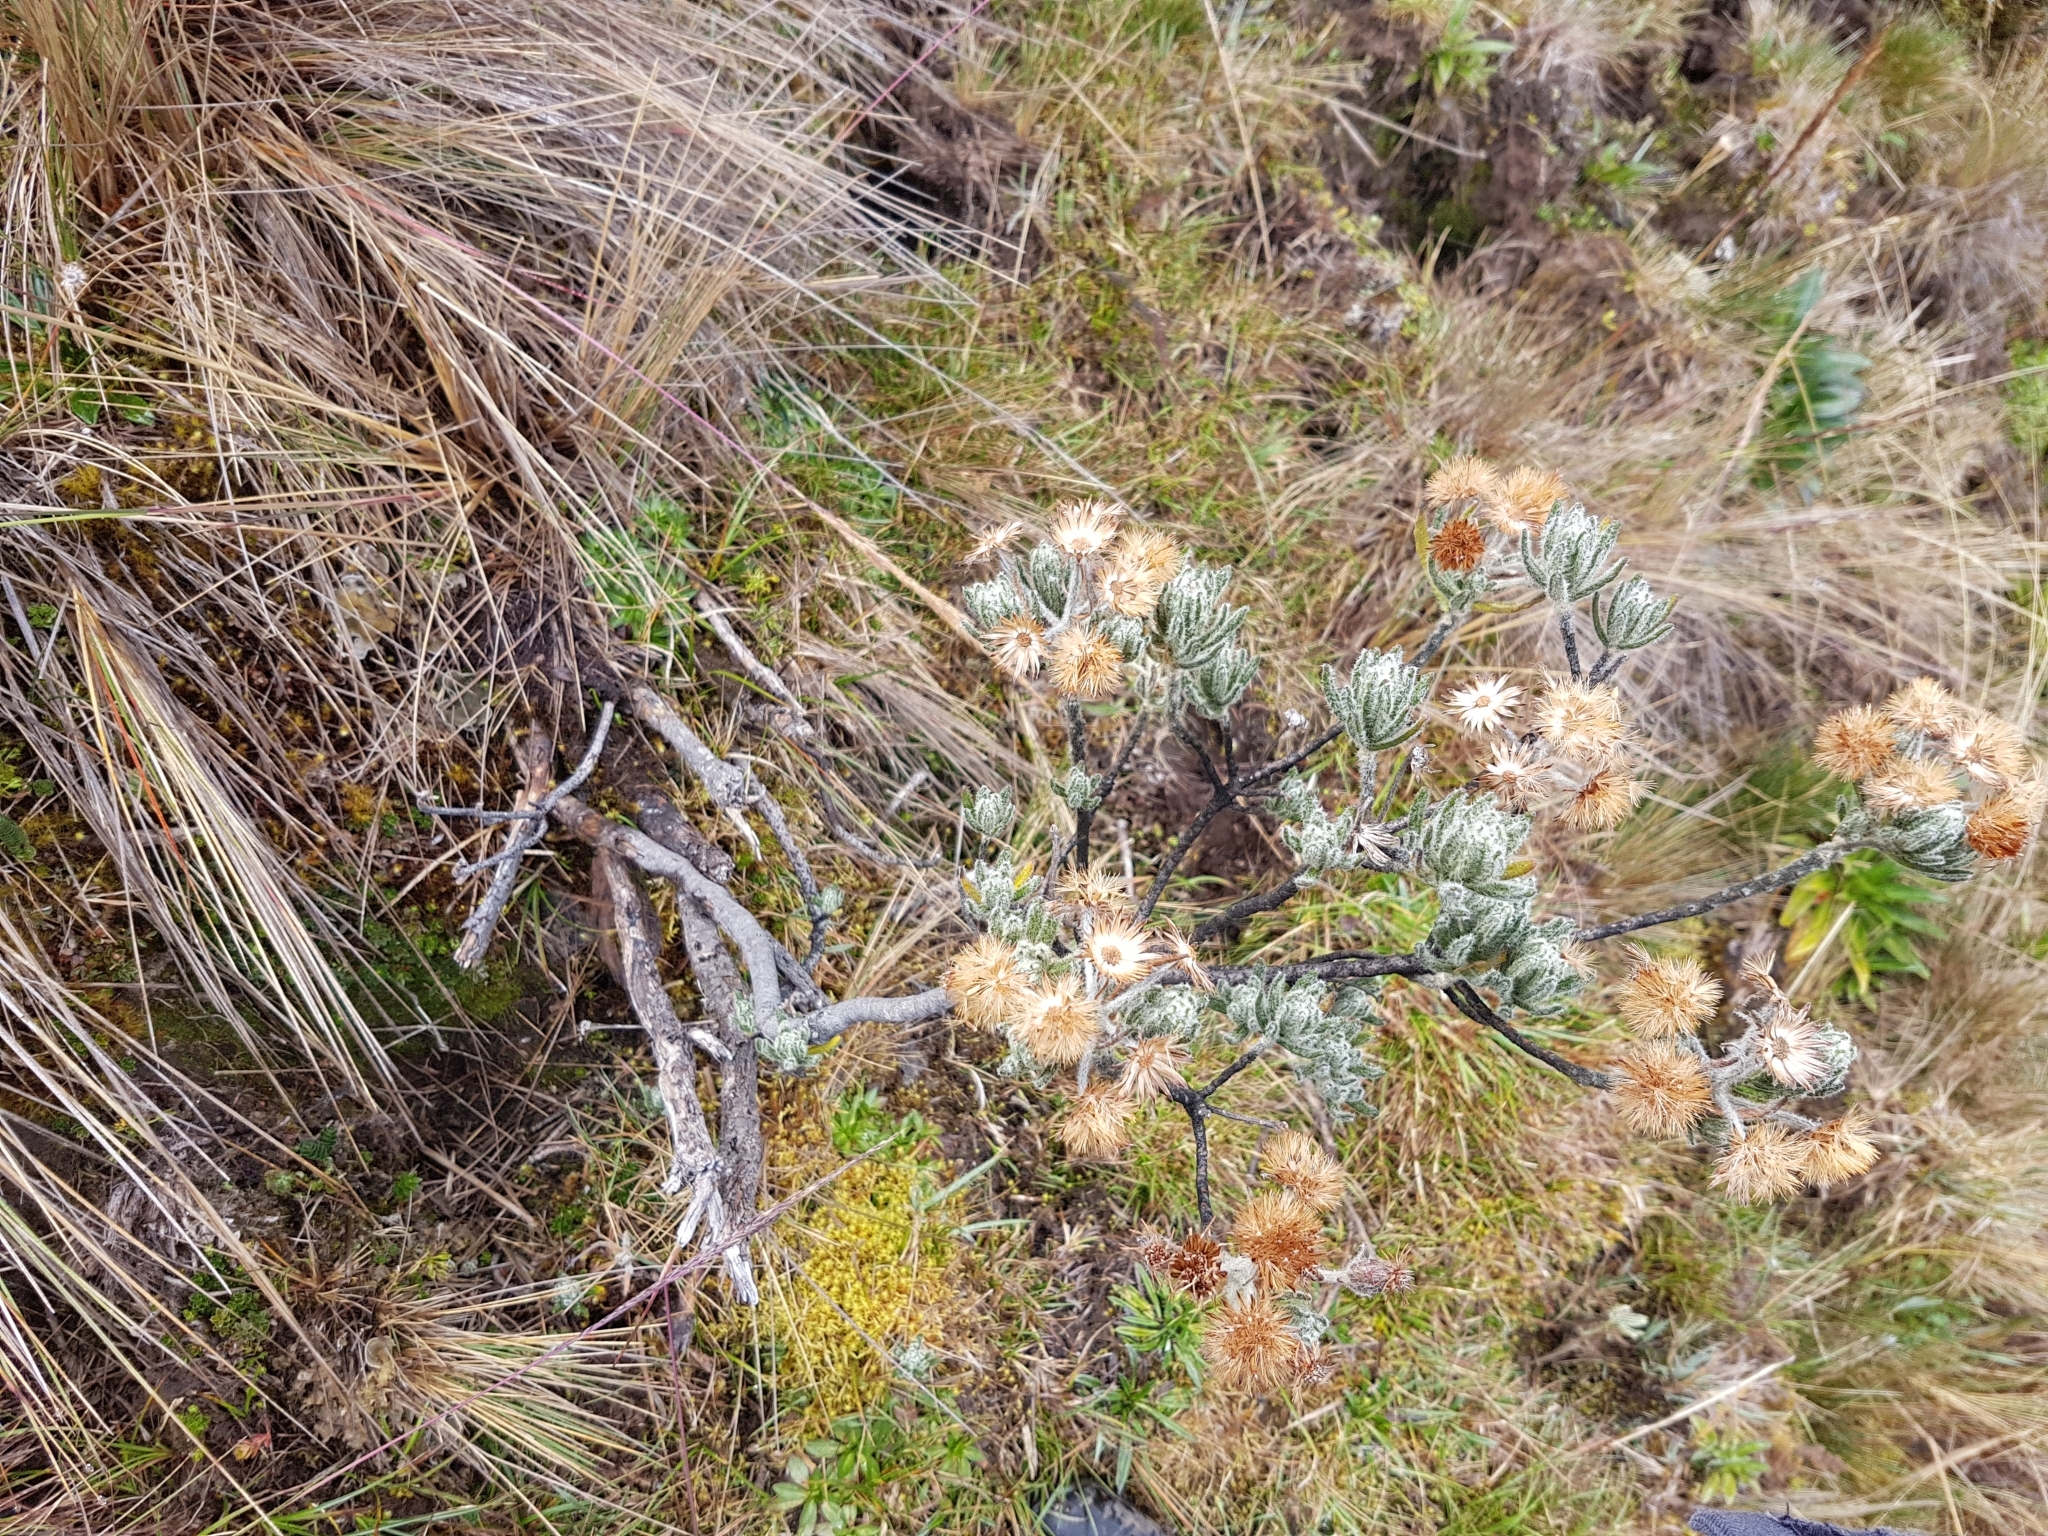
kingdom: Plantae
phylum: Tracheophyta
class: Magnoliopsida
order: Asterales
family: Asteraceae
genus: Linochilus
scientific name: Linochilus rupestris
